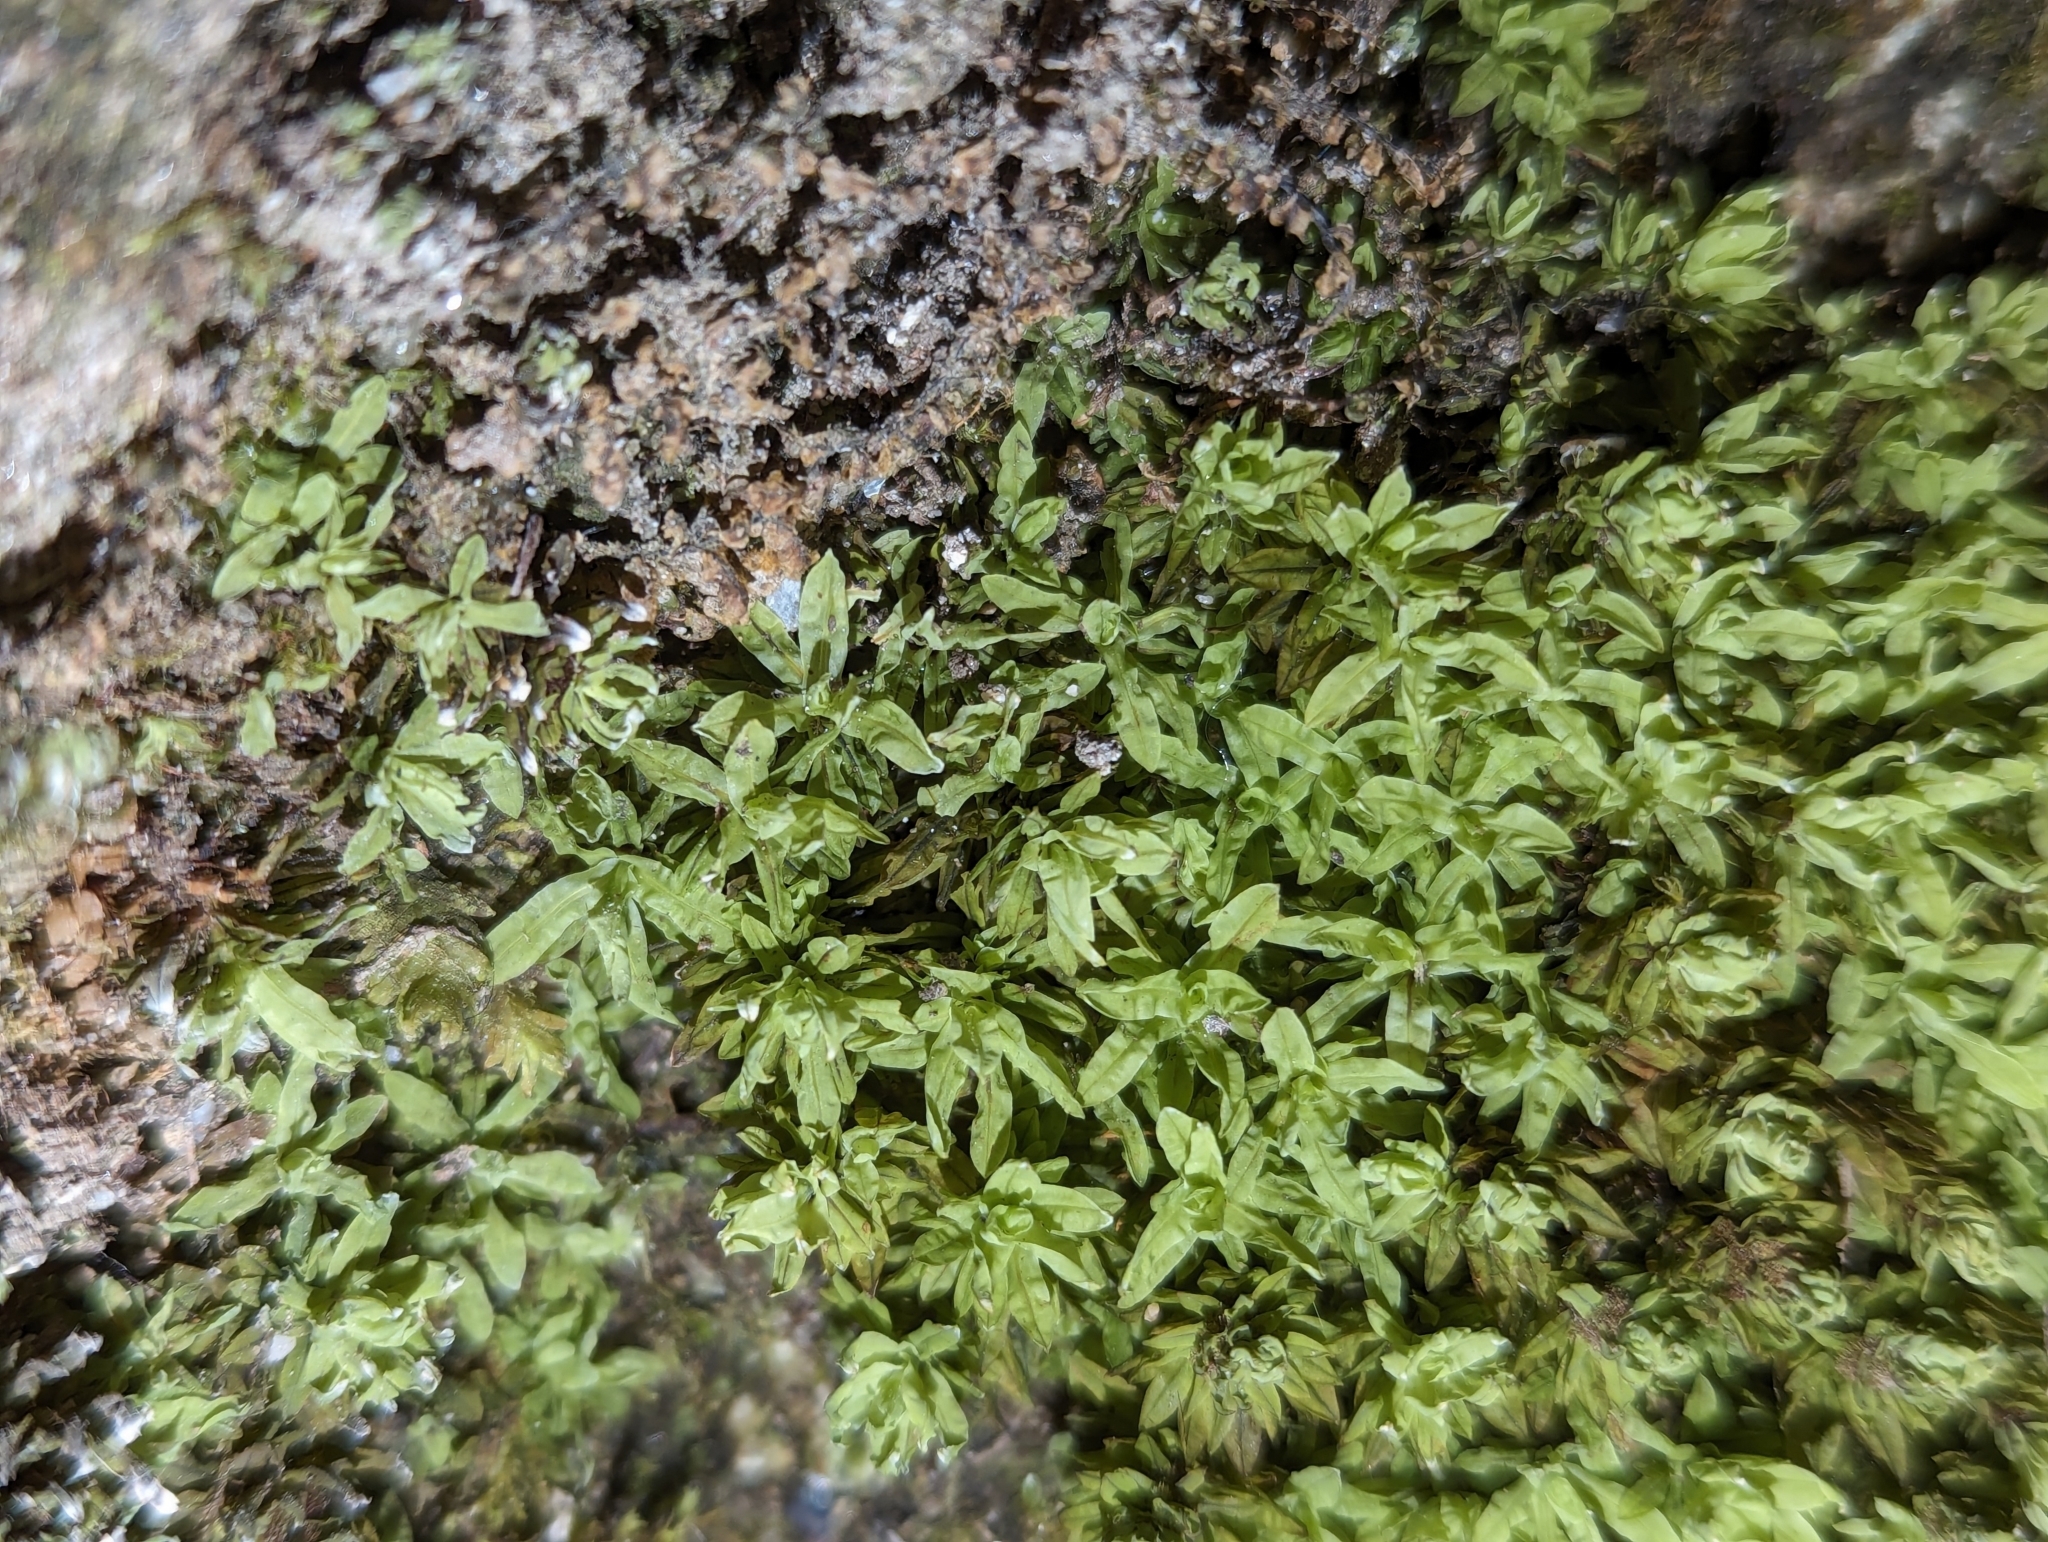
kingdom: Plantae
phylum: Bryophyta
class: Bryopsida
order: Encalyptales
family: Encalyptaceae
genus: Encalypta
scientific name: Encalypta streptocarpa
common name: Spiral extinguisher-moss
